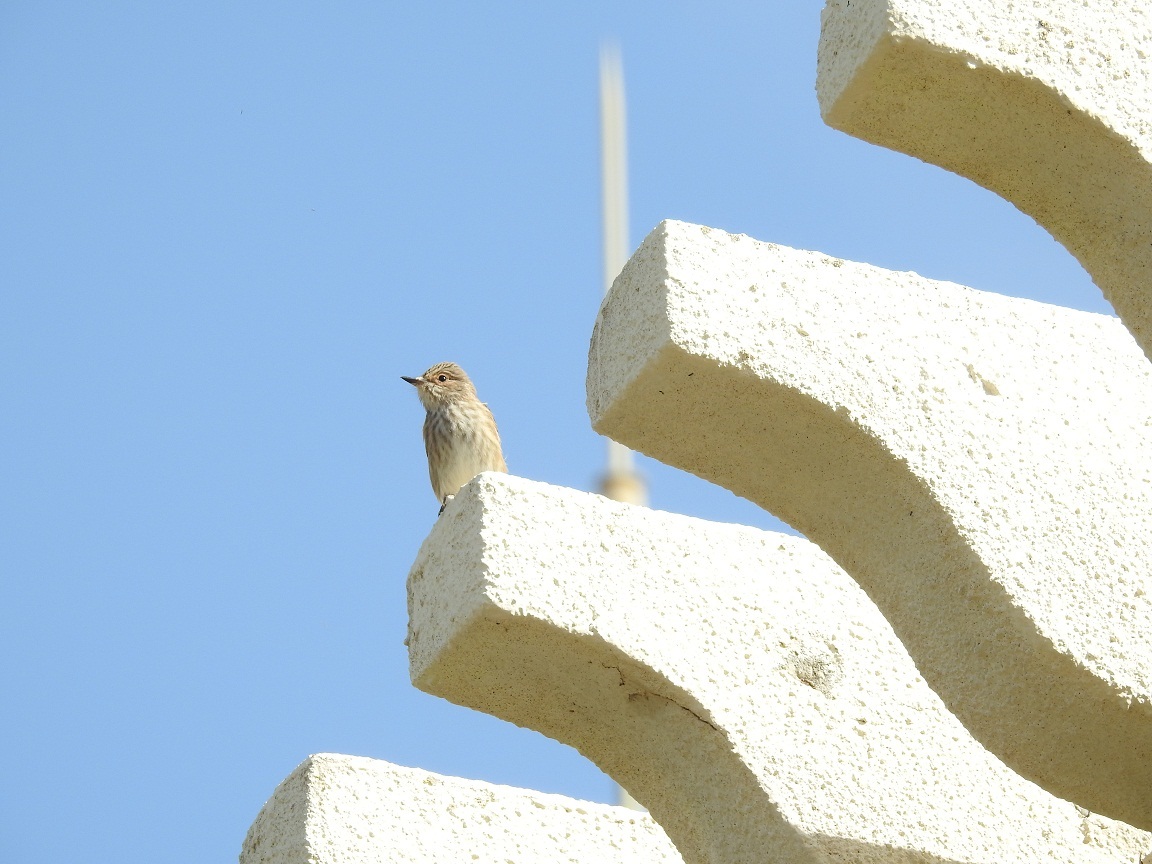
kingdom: Animalia
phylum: Chordata
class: Aves
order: Passeriformes
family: Muscicapidae
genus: Muscicapa
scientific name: Muscicapa striata
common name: Spotted flycatcher
